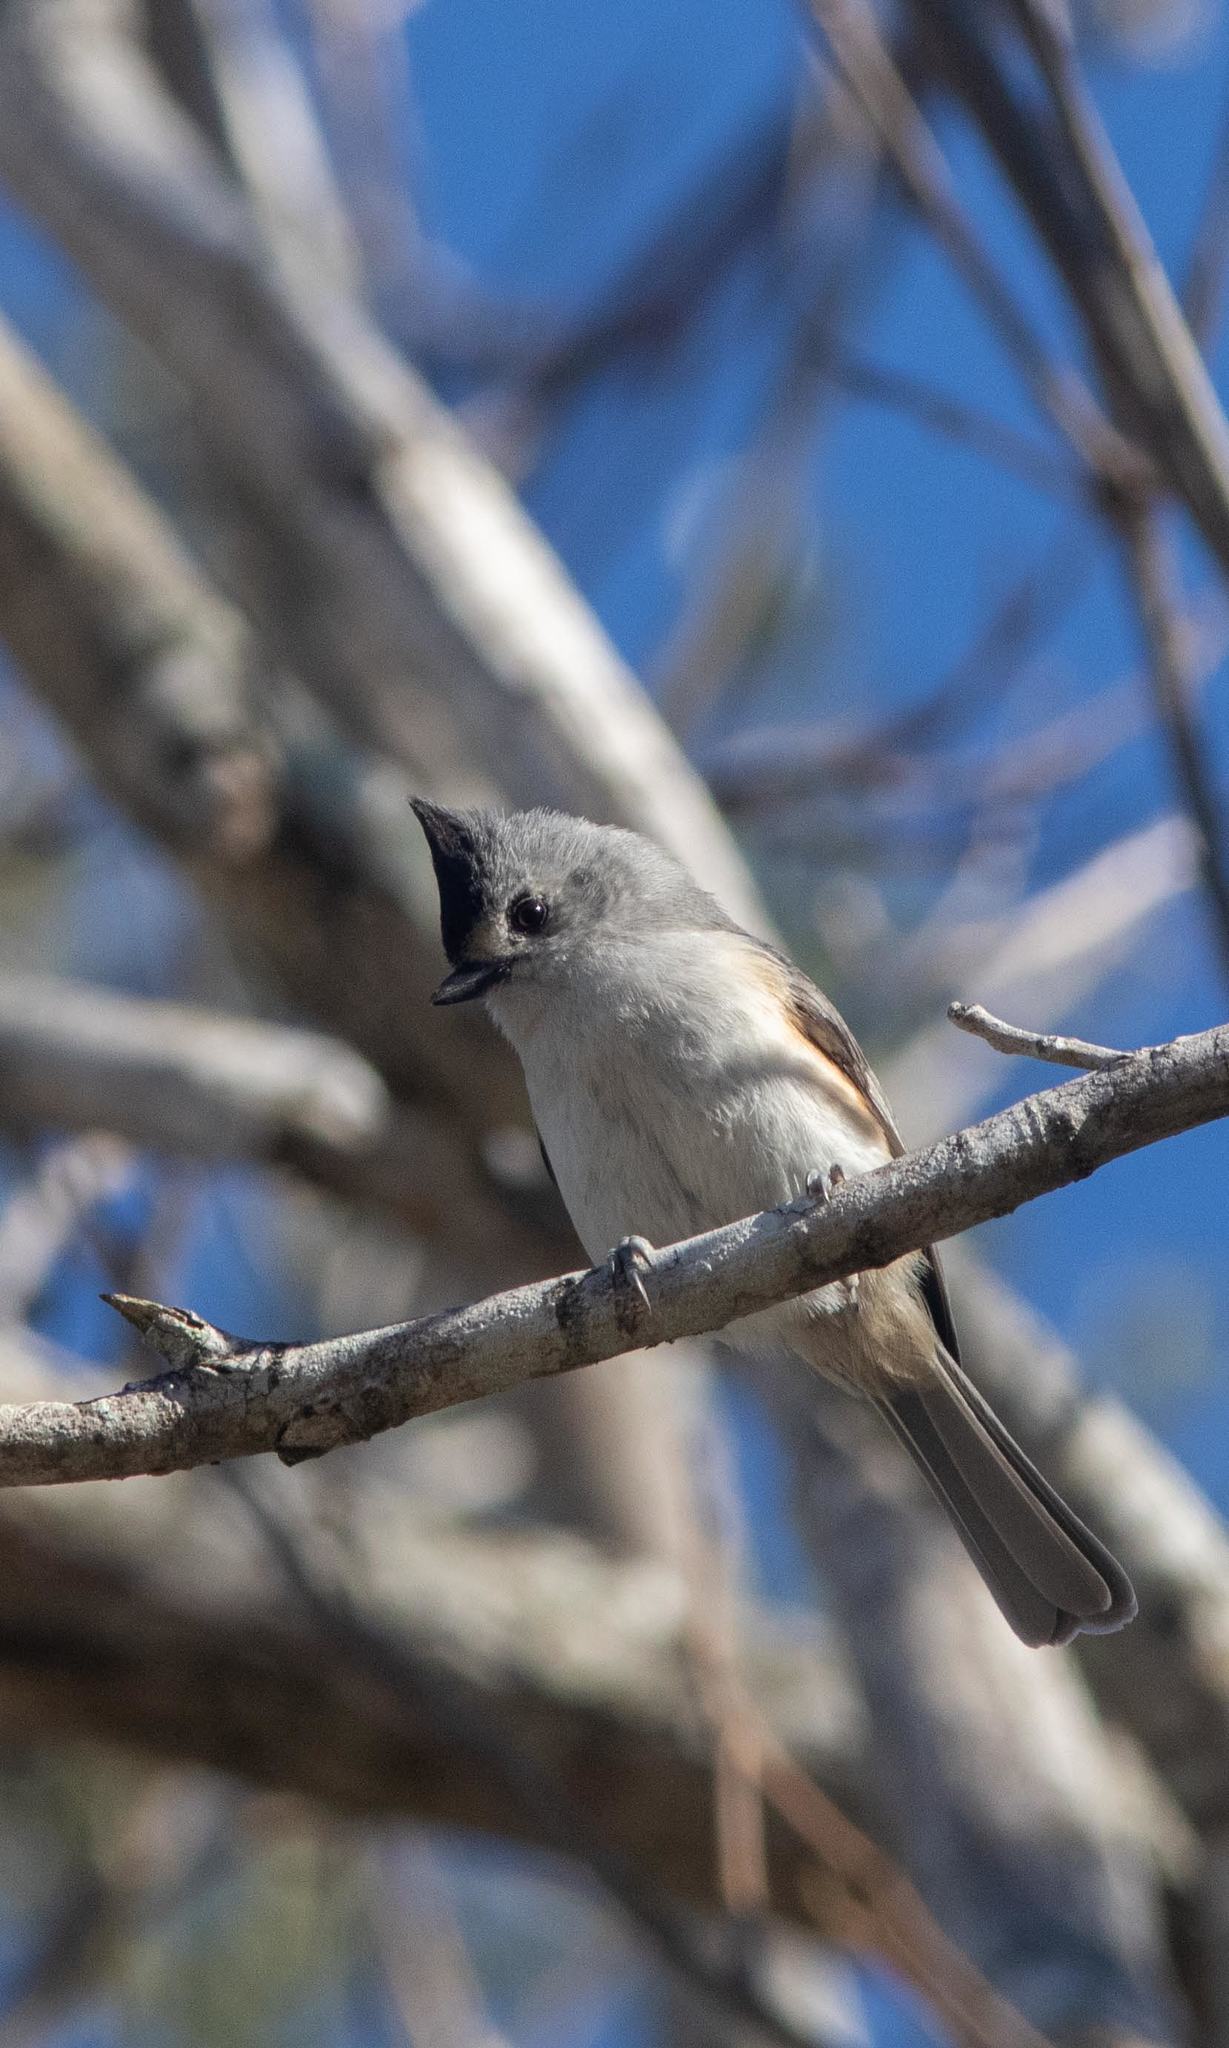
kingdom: Animalia
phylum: Chordata
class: Aves
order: Passeriformes
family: Paridae
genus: Baeolophus
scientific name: Baeolophus atricristatus
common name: Black-crested titmouse
